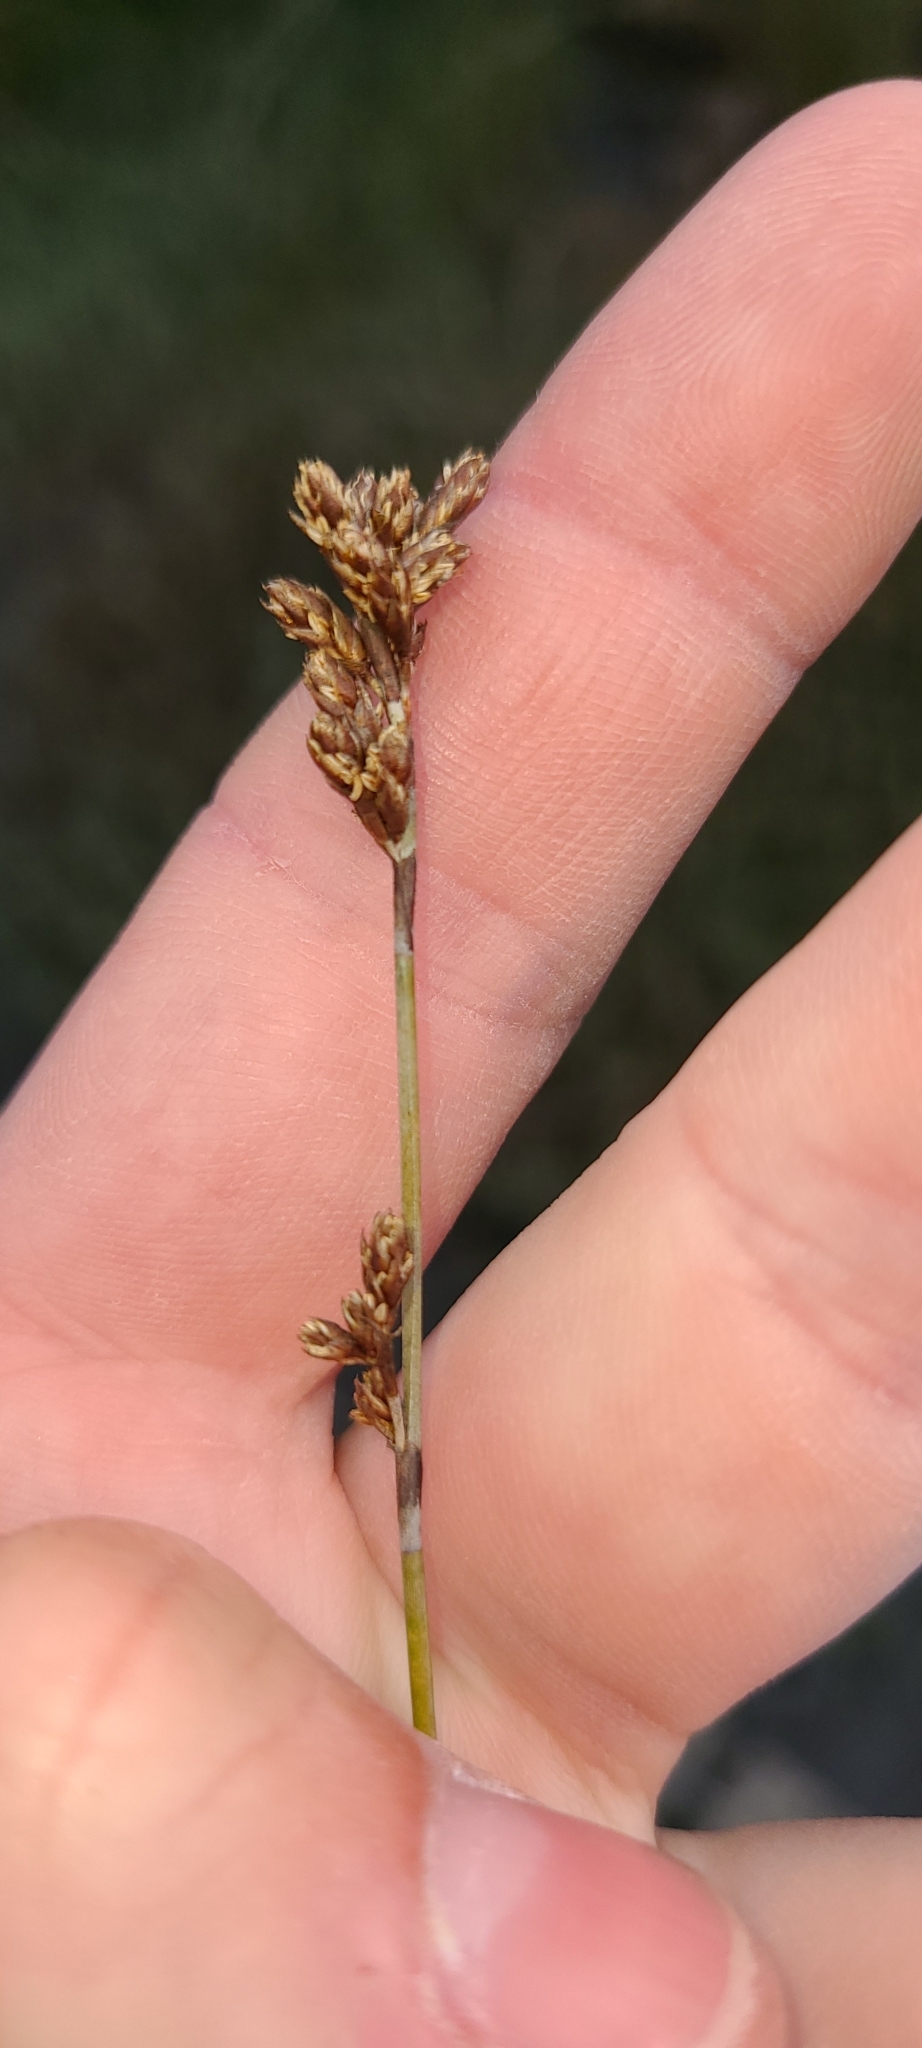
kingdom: Plantae
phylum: Tracheophyta
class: Liliopsida
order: Poales
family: Restionaceae
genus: Apodasmia
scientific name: Apodasmia similis
